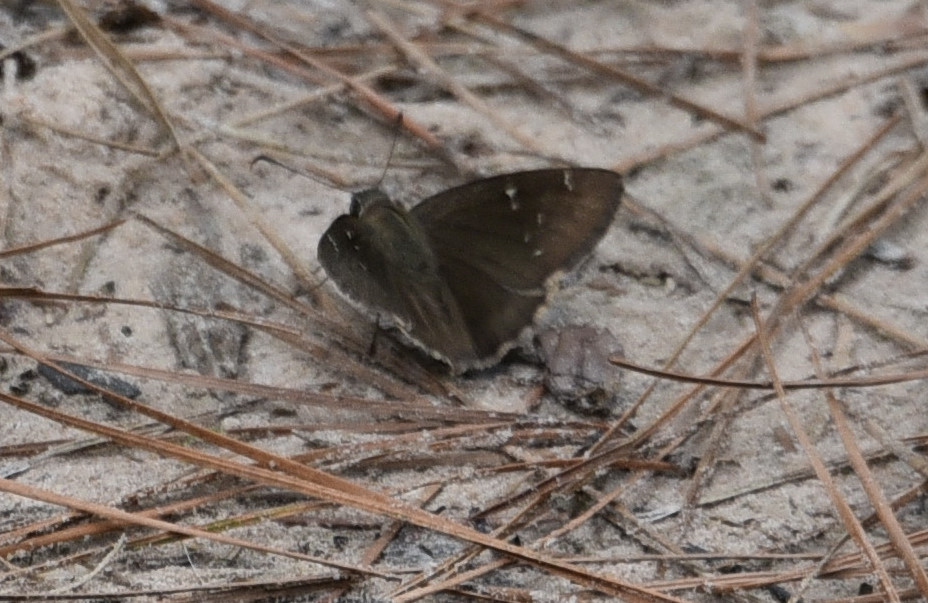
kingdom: Animalia
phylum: Arthropoda
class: Insecta
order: Lepidoptera
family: Hesperiidae
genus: Thorybes
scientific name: Thorybes pylades
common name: Northern cloudywing
